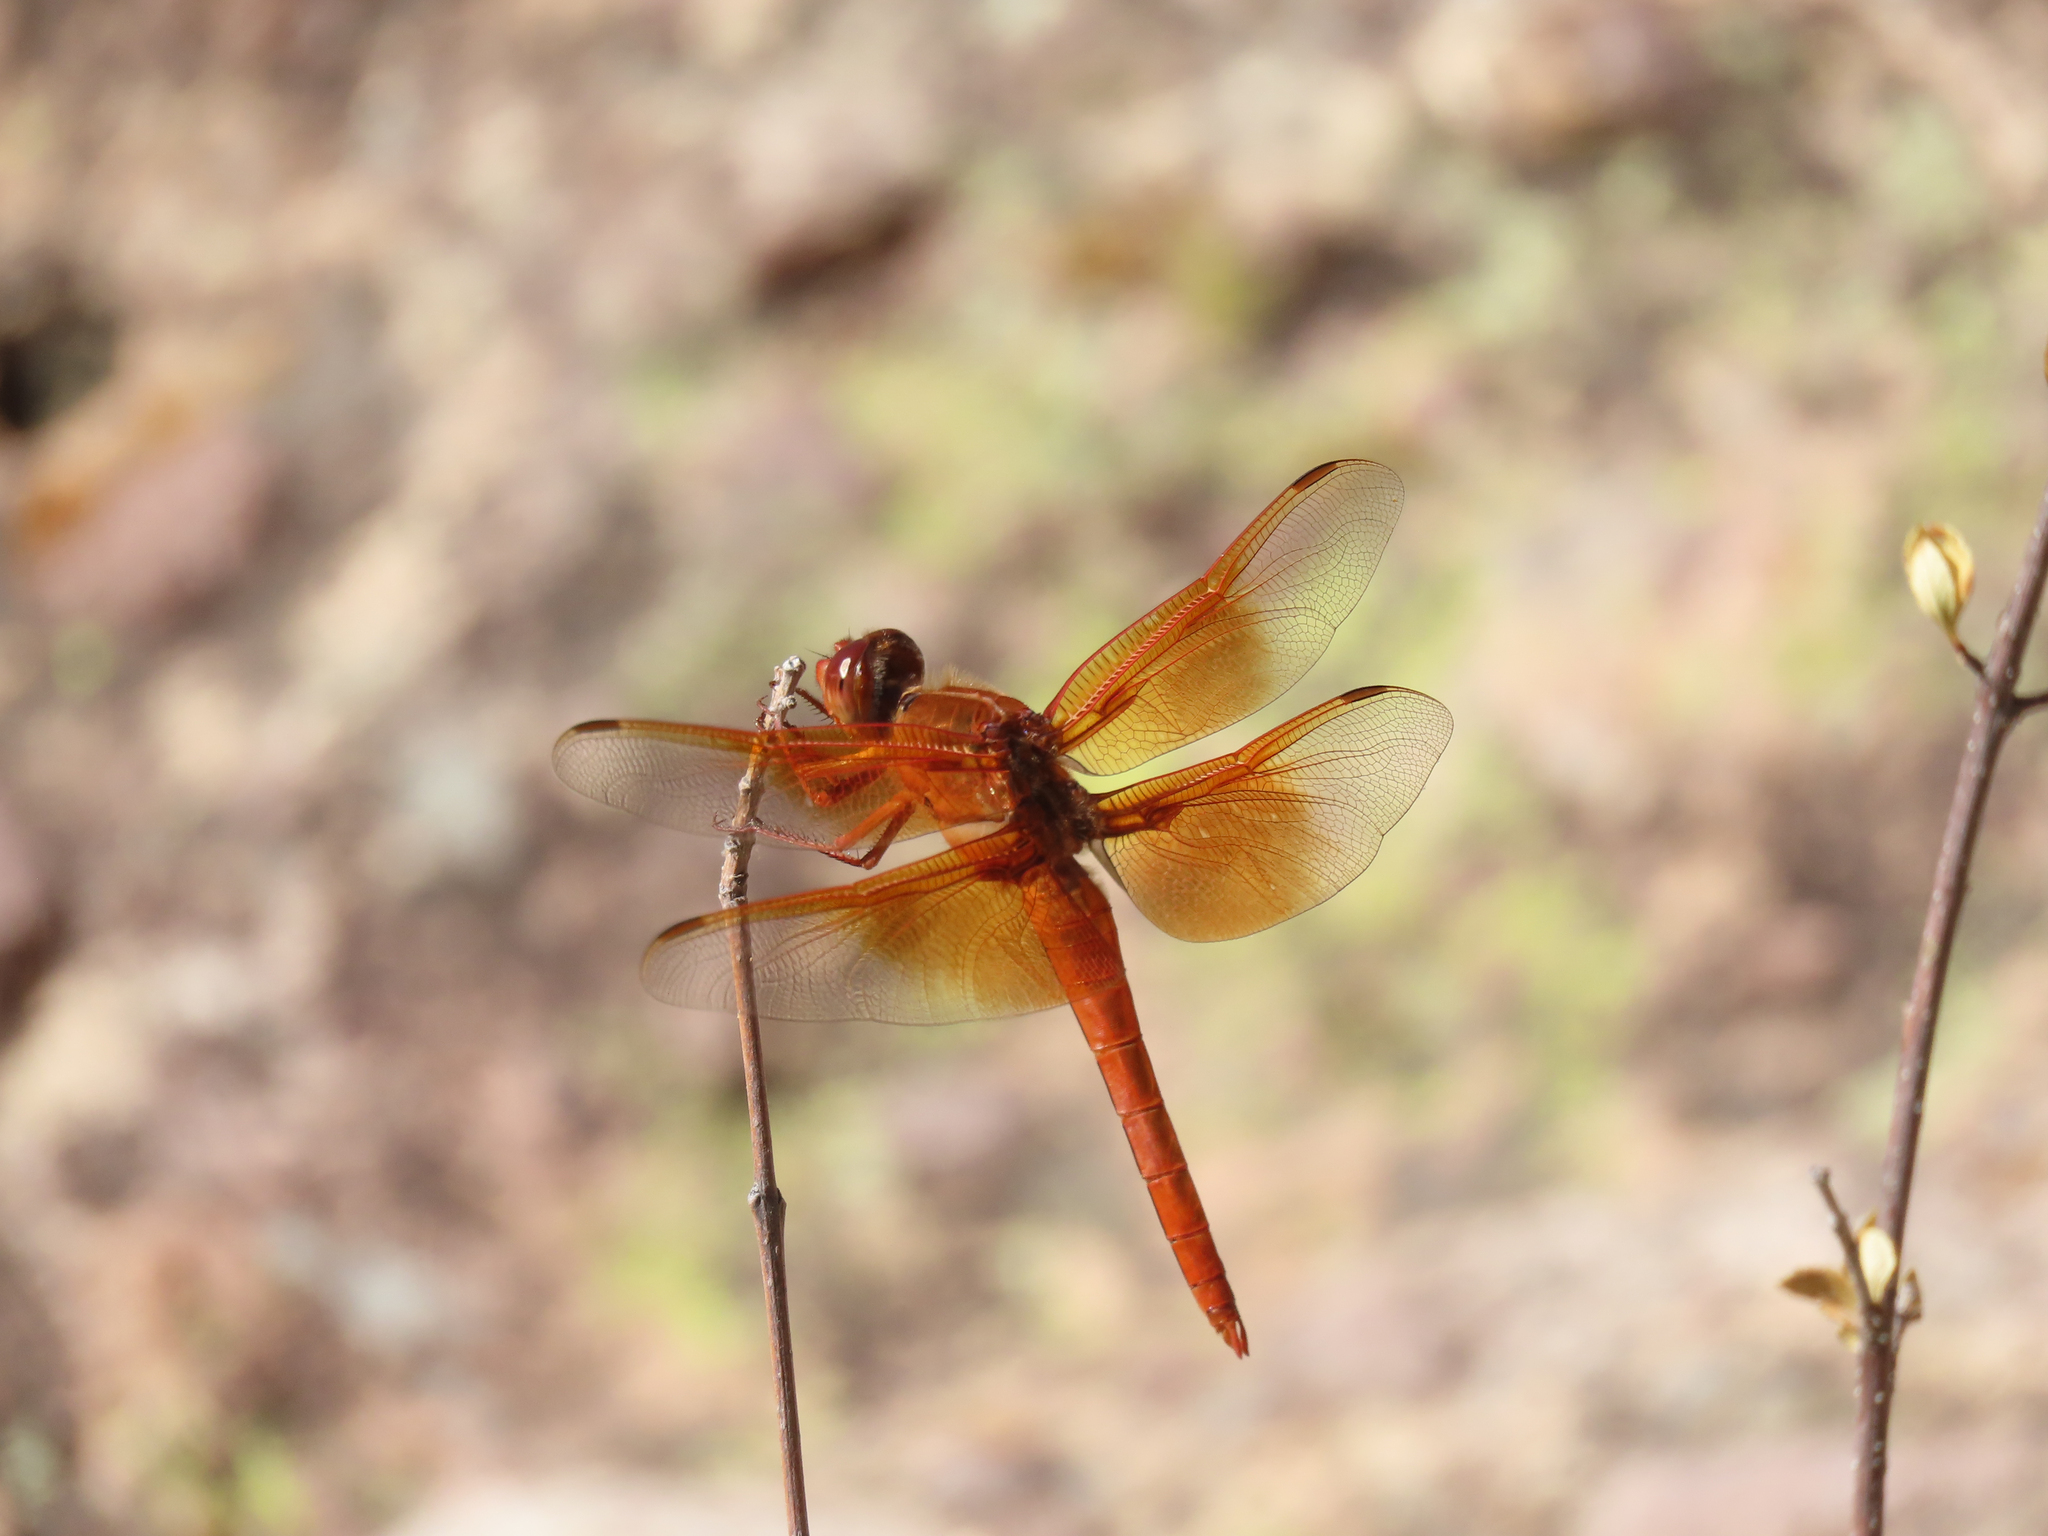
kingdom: Animalia
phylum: Arthropoda
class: Insecta
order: Odonata
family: Libellulidae
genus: Libellula
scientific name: Libellula saturata
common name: Flame skimmer
